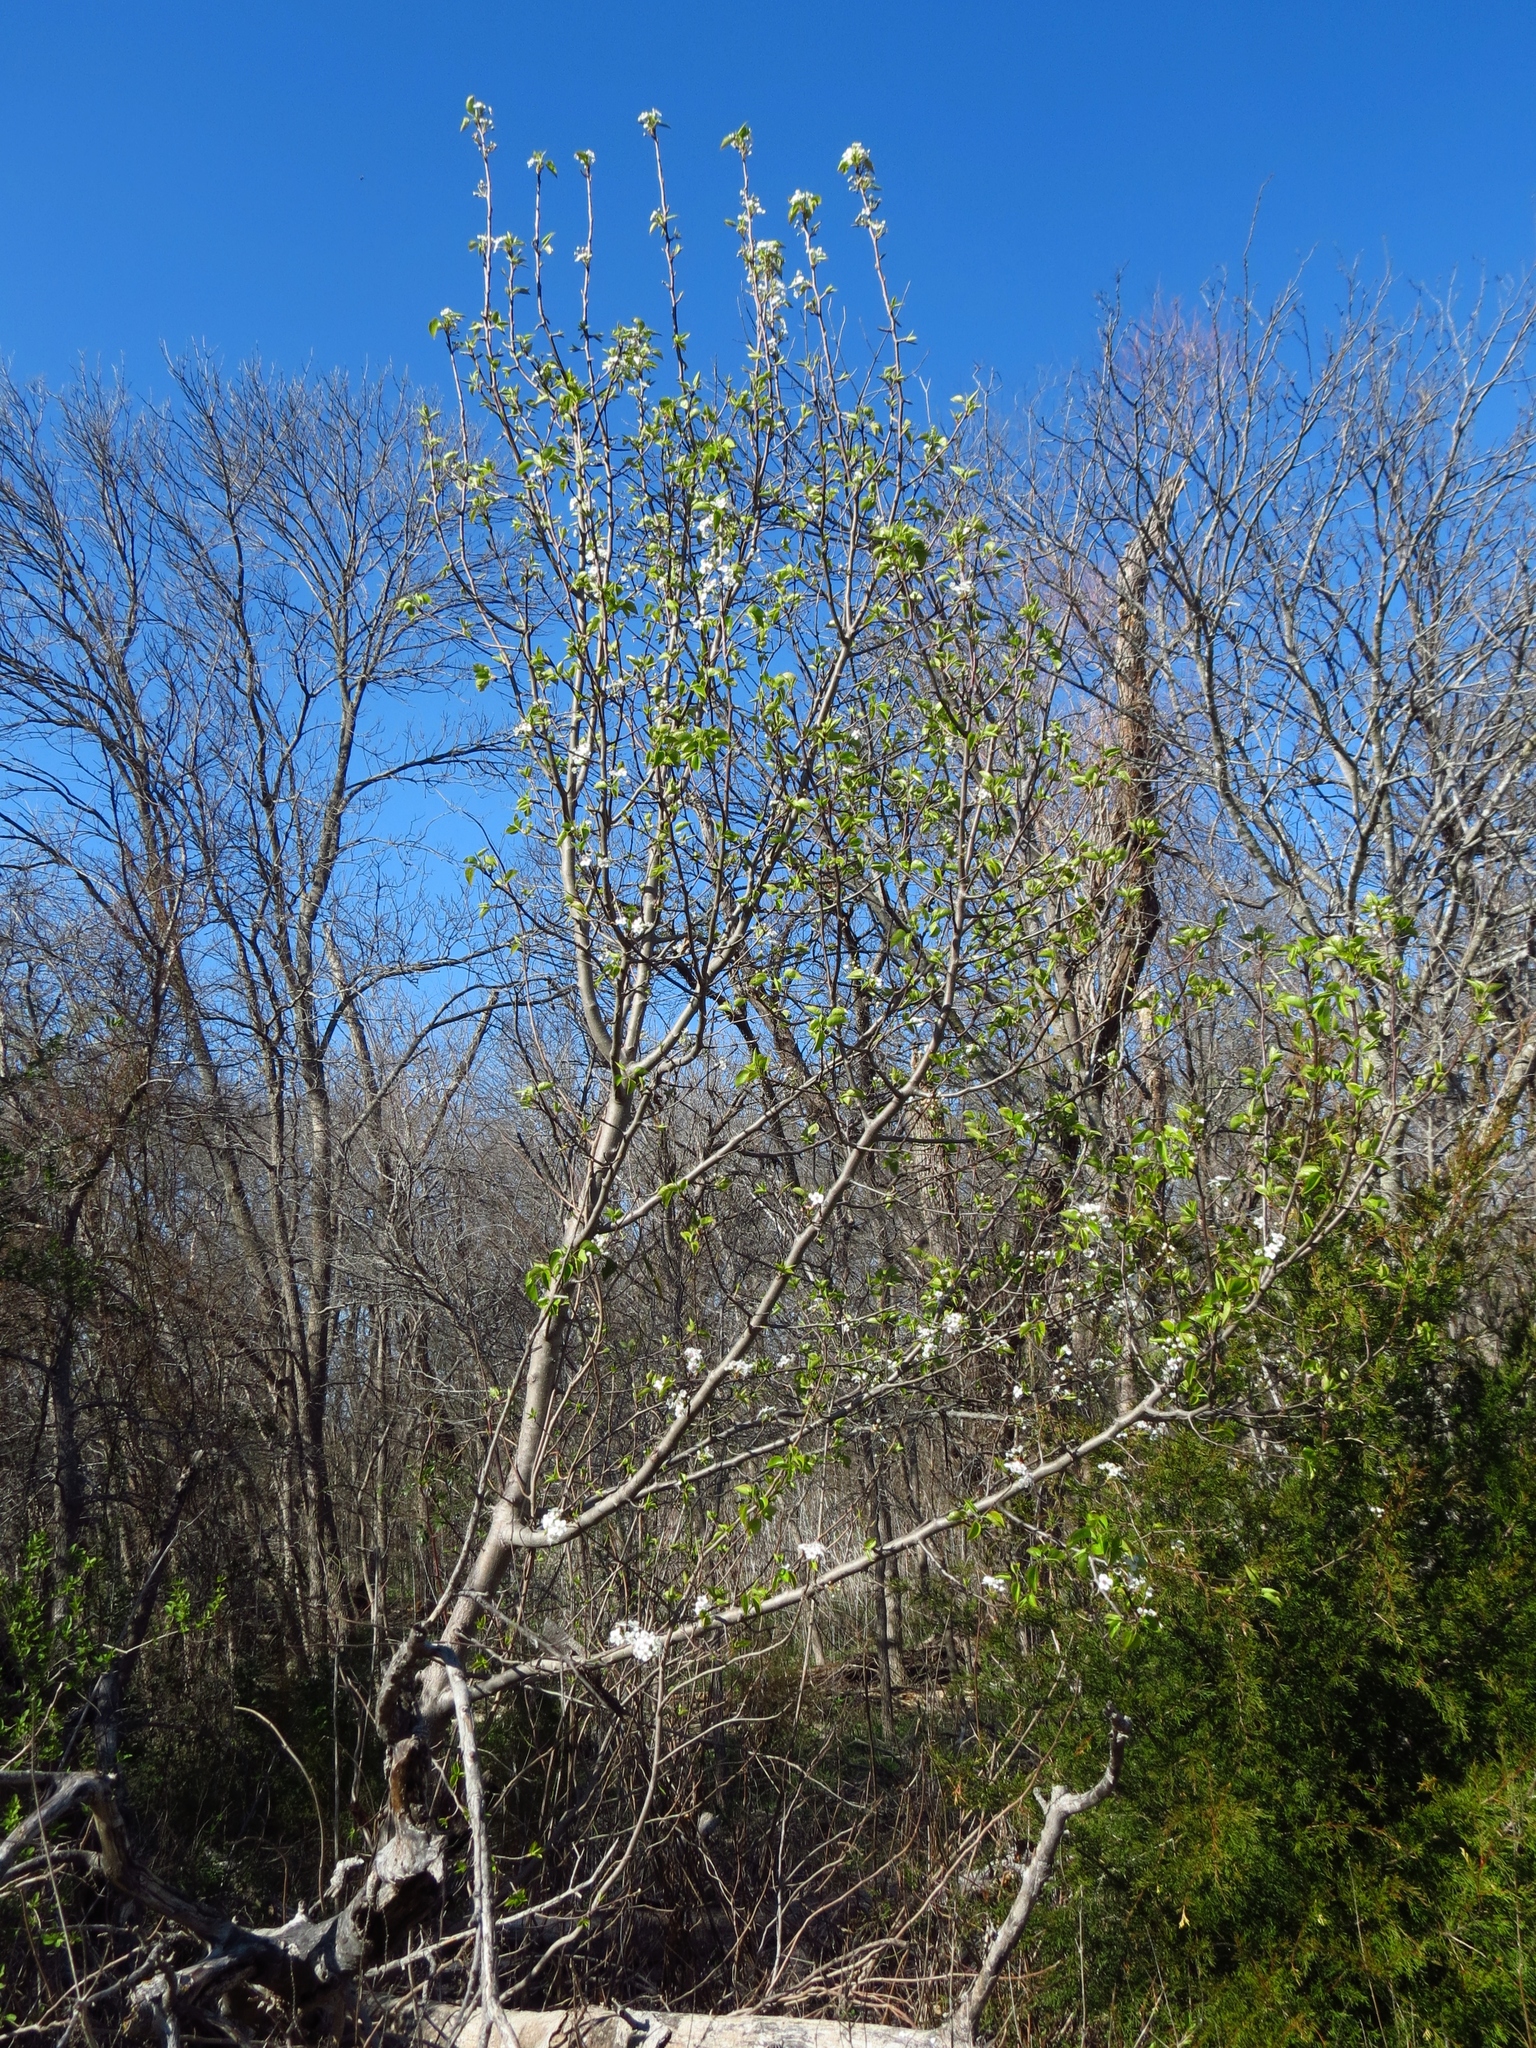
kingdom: Plantae
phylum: Tracheophyta
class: Magnoliopsida
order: Rosales
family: Rosaceae
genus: Pyrus
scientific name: Pyrus calleryana
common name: Callery pear
